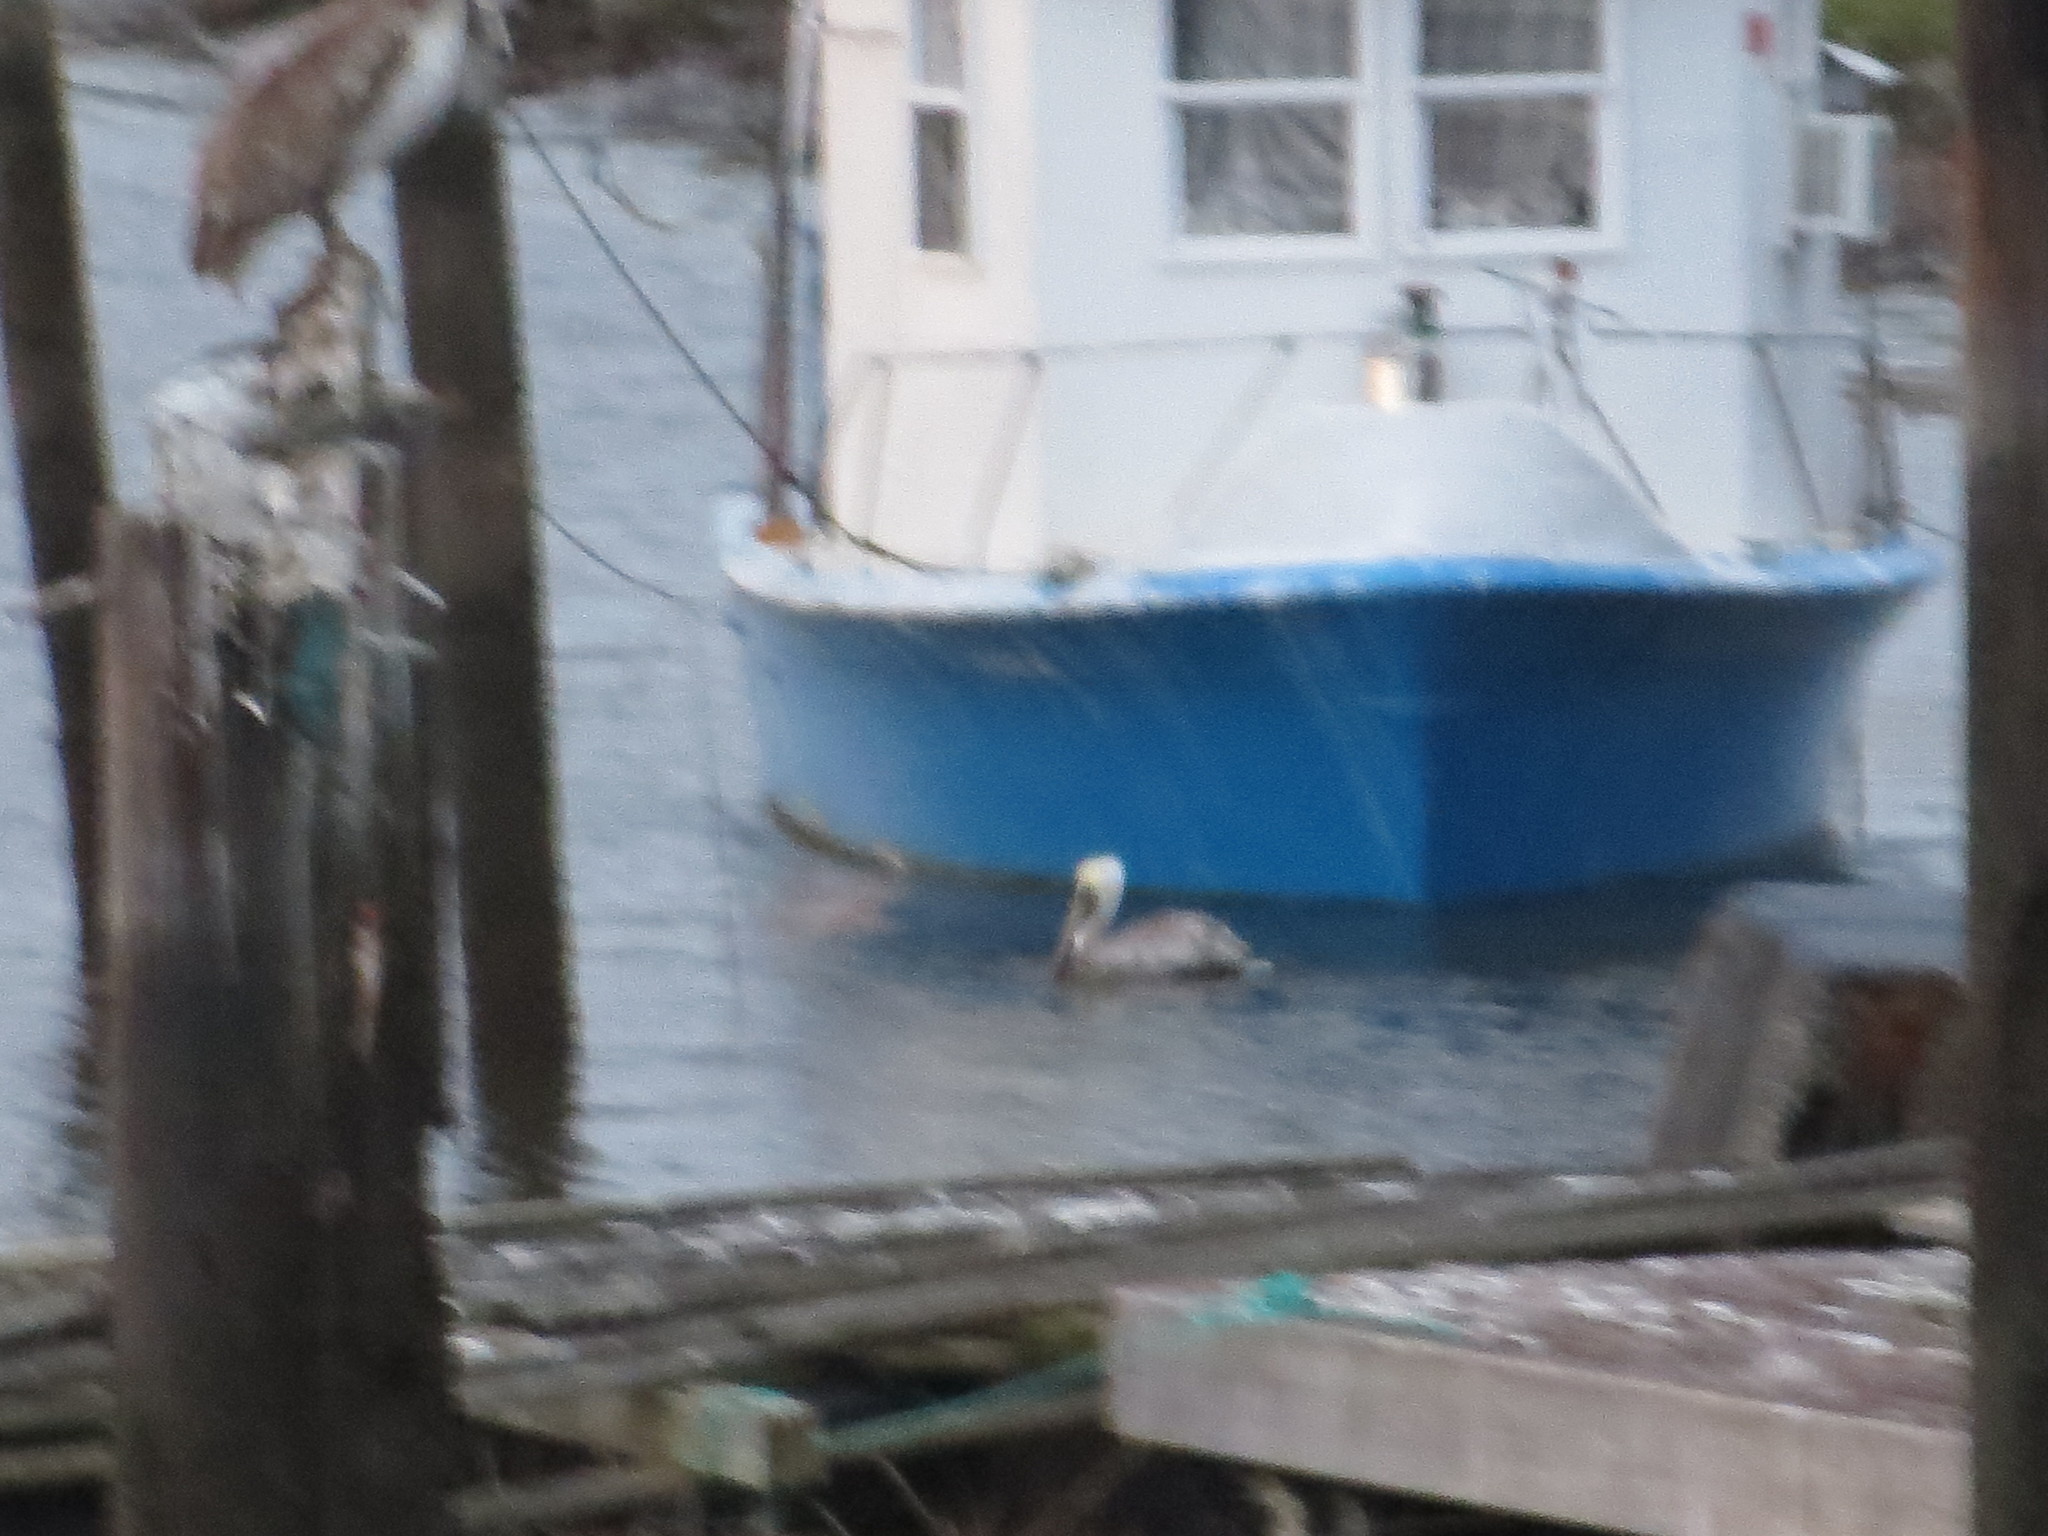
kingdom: Animalia
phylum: Chordata
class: Aves
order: Pelecaniformes
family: Pelecanidae
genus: Pelecanus
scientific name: Pelecanus occidentalis
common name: Brown pelican
